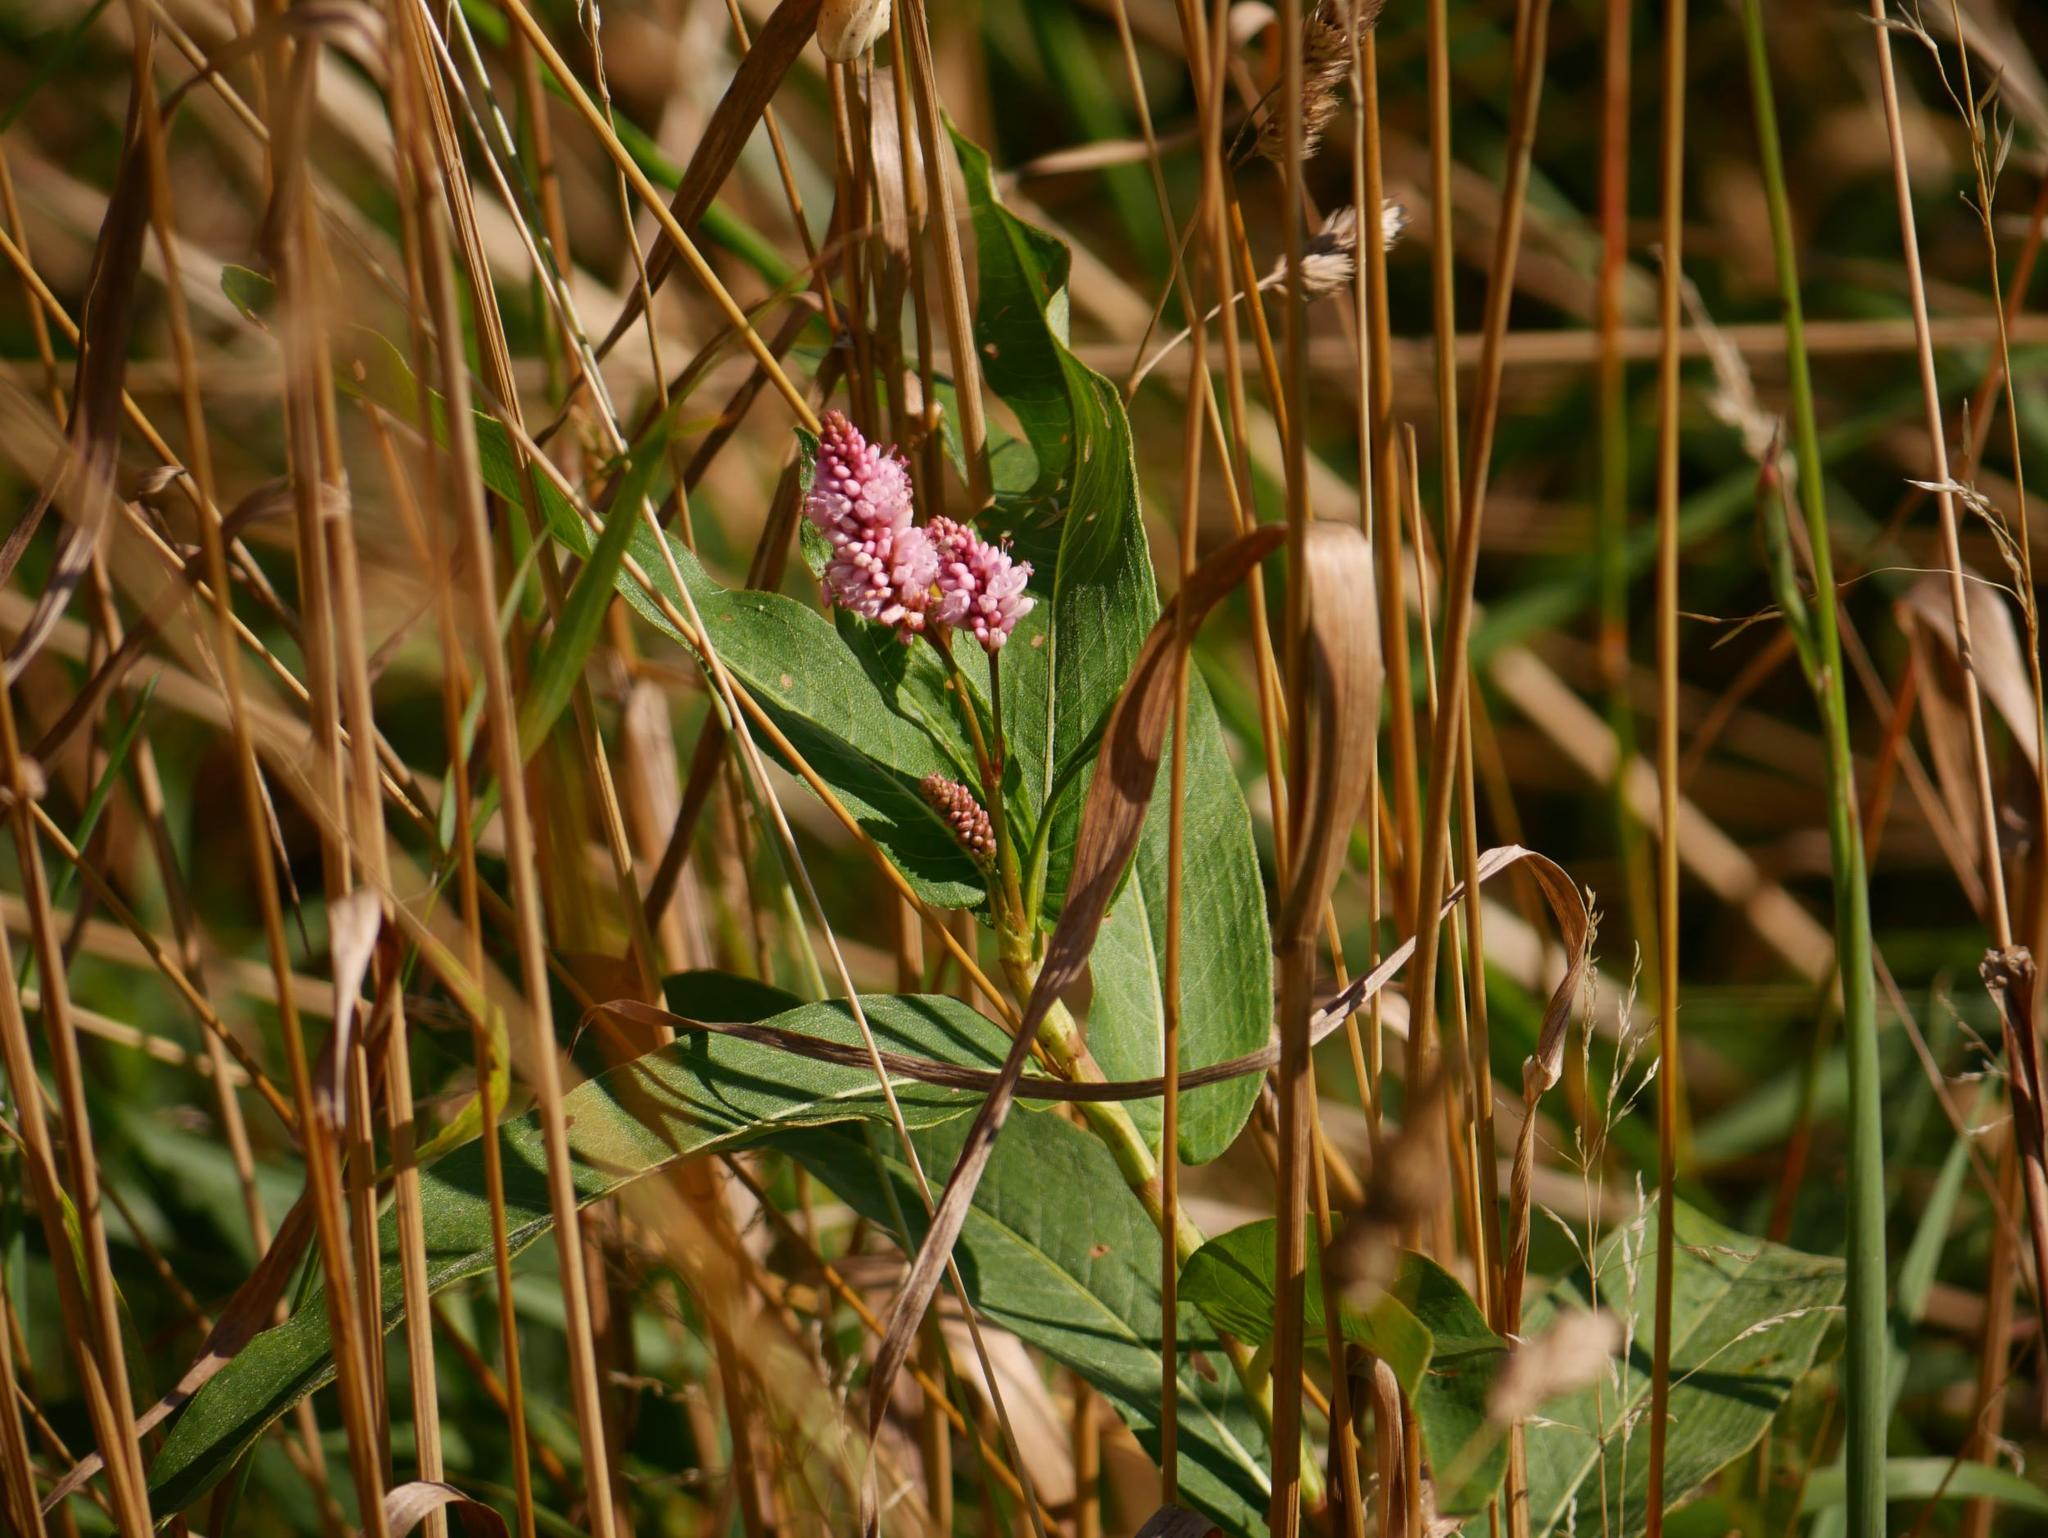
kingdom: Plantae
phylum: Tracheophyta
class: Magnoliopsida
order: Caryophyllales
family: Polygonaceae
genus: Persicaria
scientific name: Persicaria amphibia
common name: Amphibious bistort
